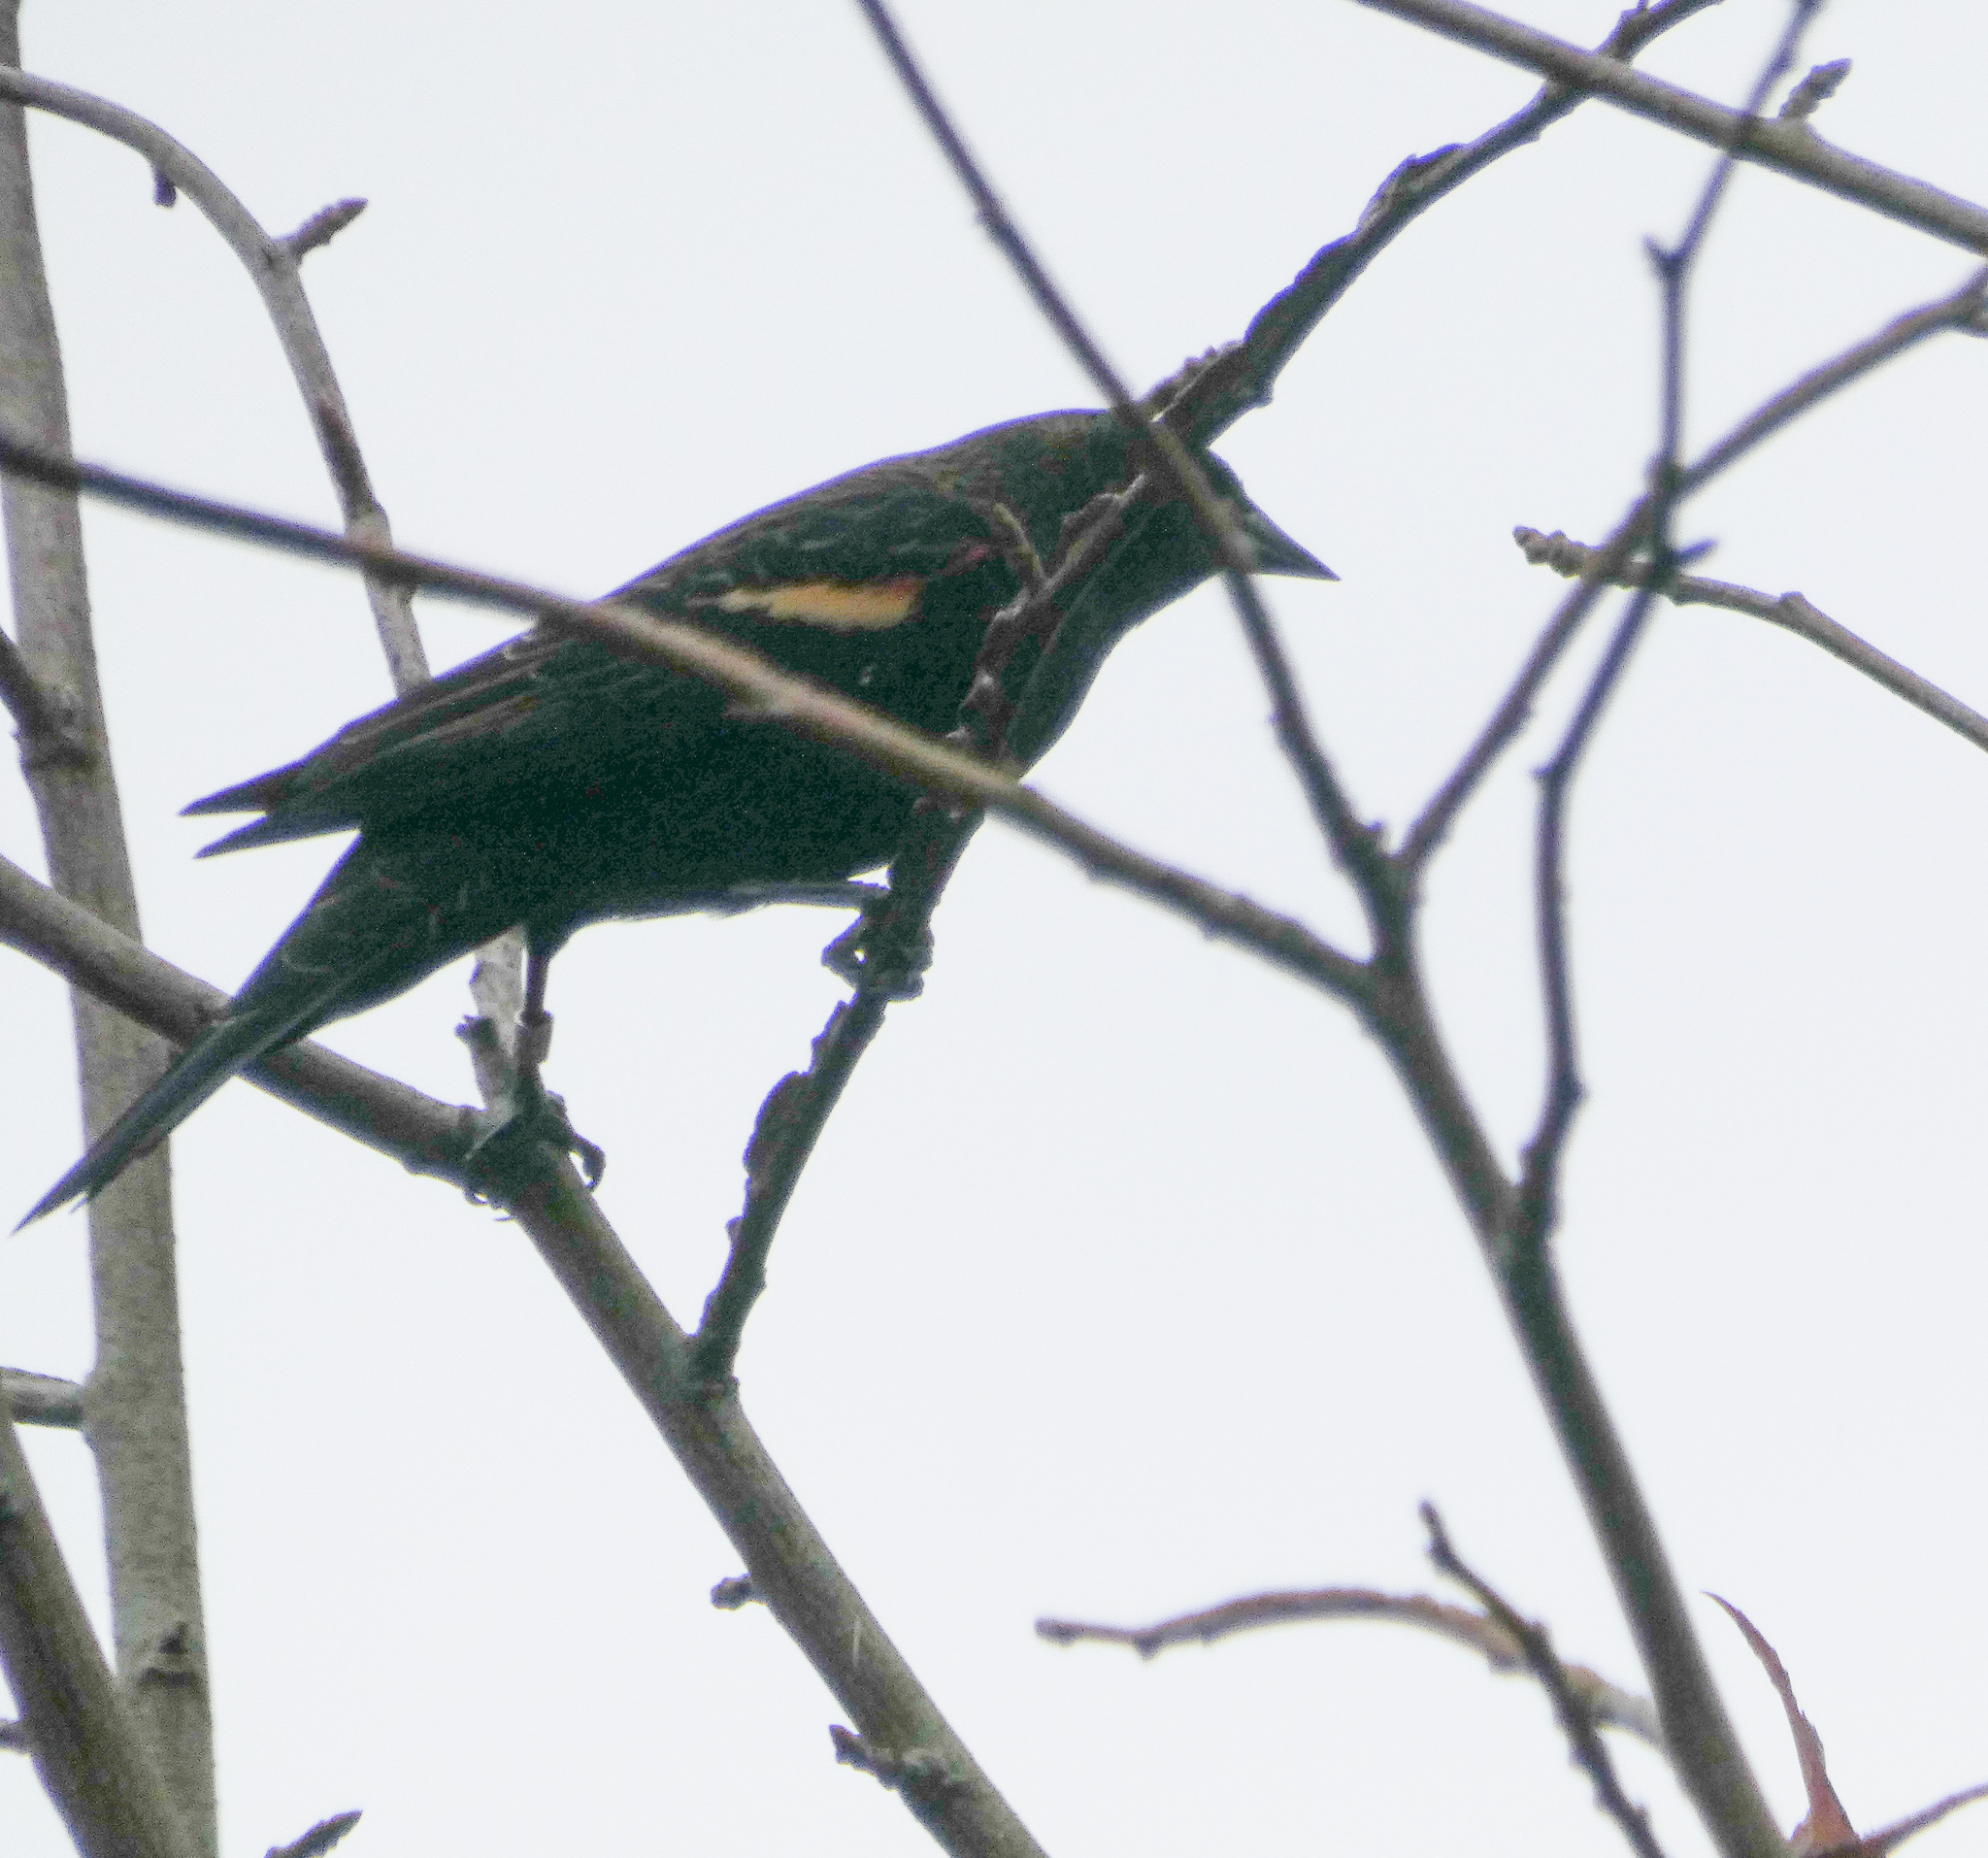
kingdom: Animalia
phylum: Chordata
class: Aves
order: Passeriformes
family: Icteridae
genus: Agelaius
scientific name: Agelaius phoeniceus
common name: Red-winged blackbird
